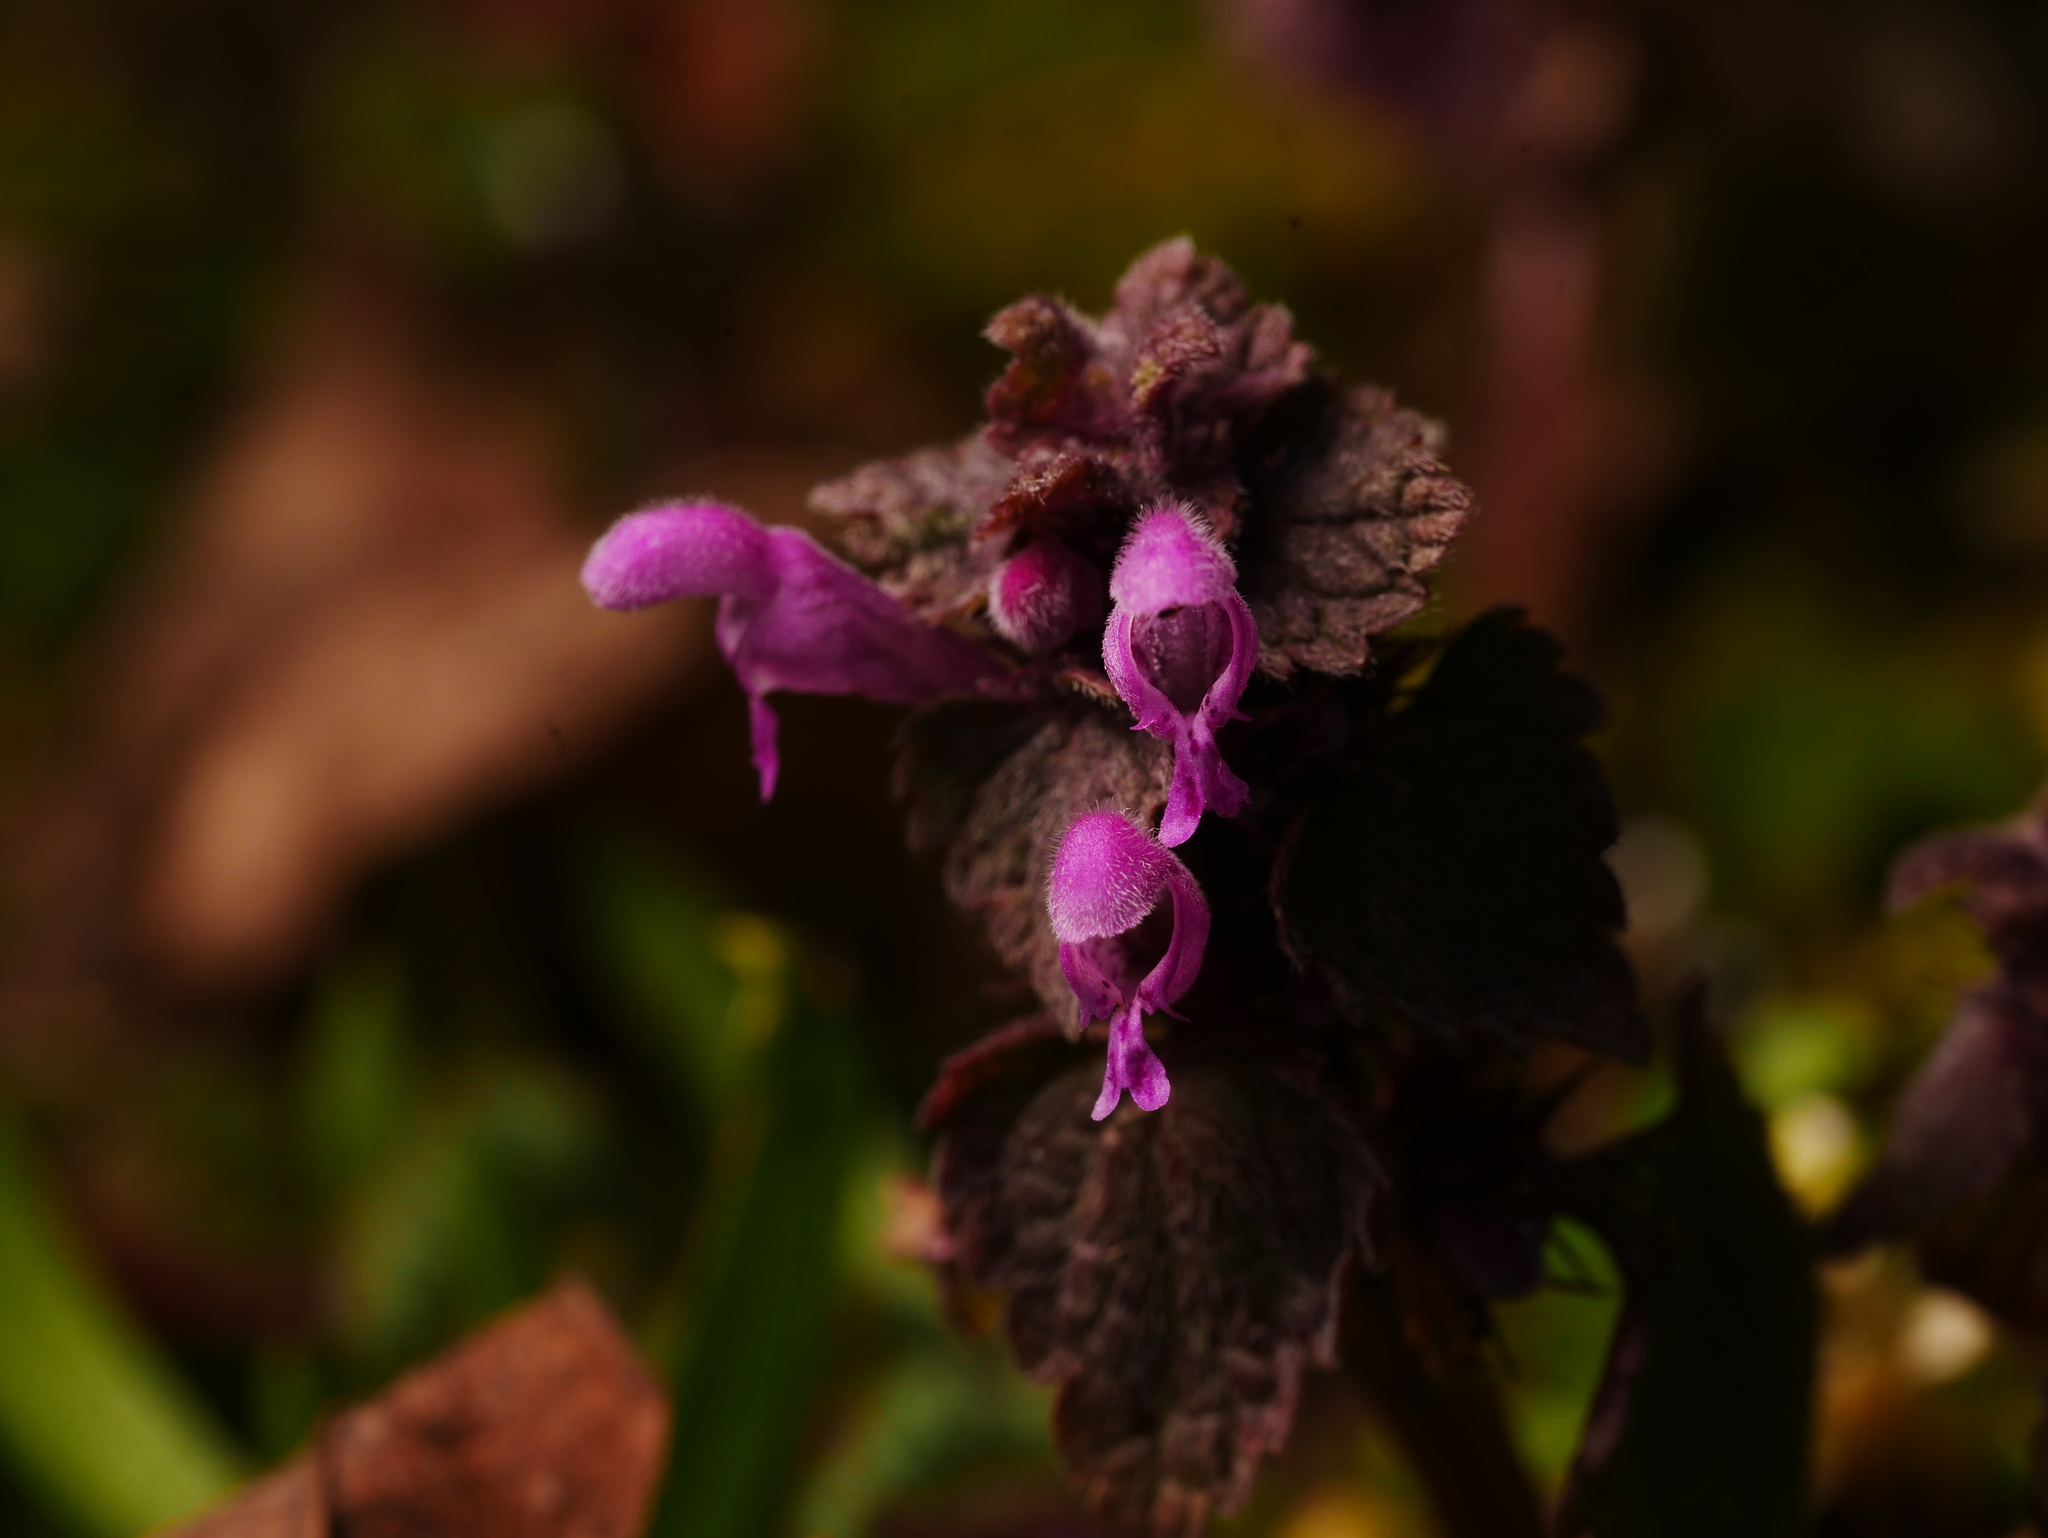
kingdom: Plantae
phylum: Tracheophyta
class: Magnoliopsida
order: Lamiales
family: Lamiaceae
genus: Lamium
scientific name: Lamium purpureum
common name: Red dead-nettle
